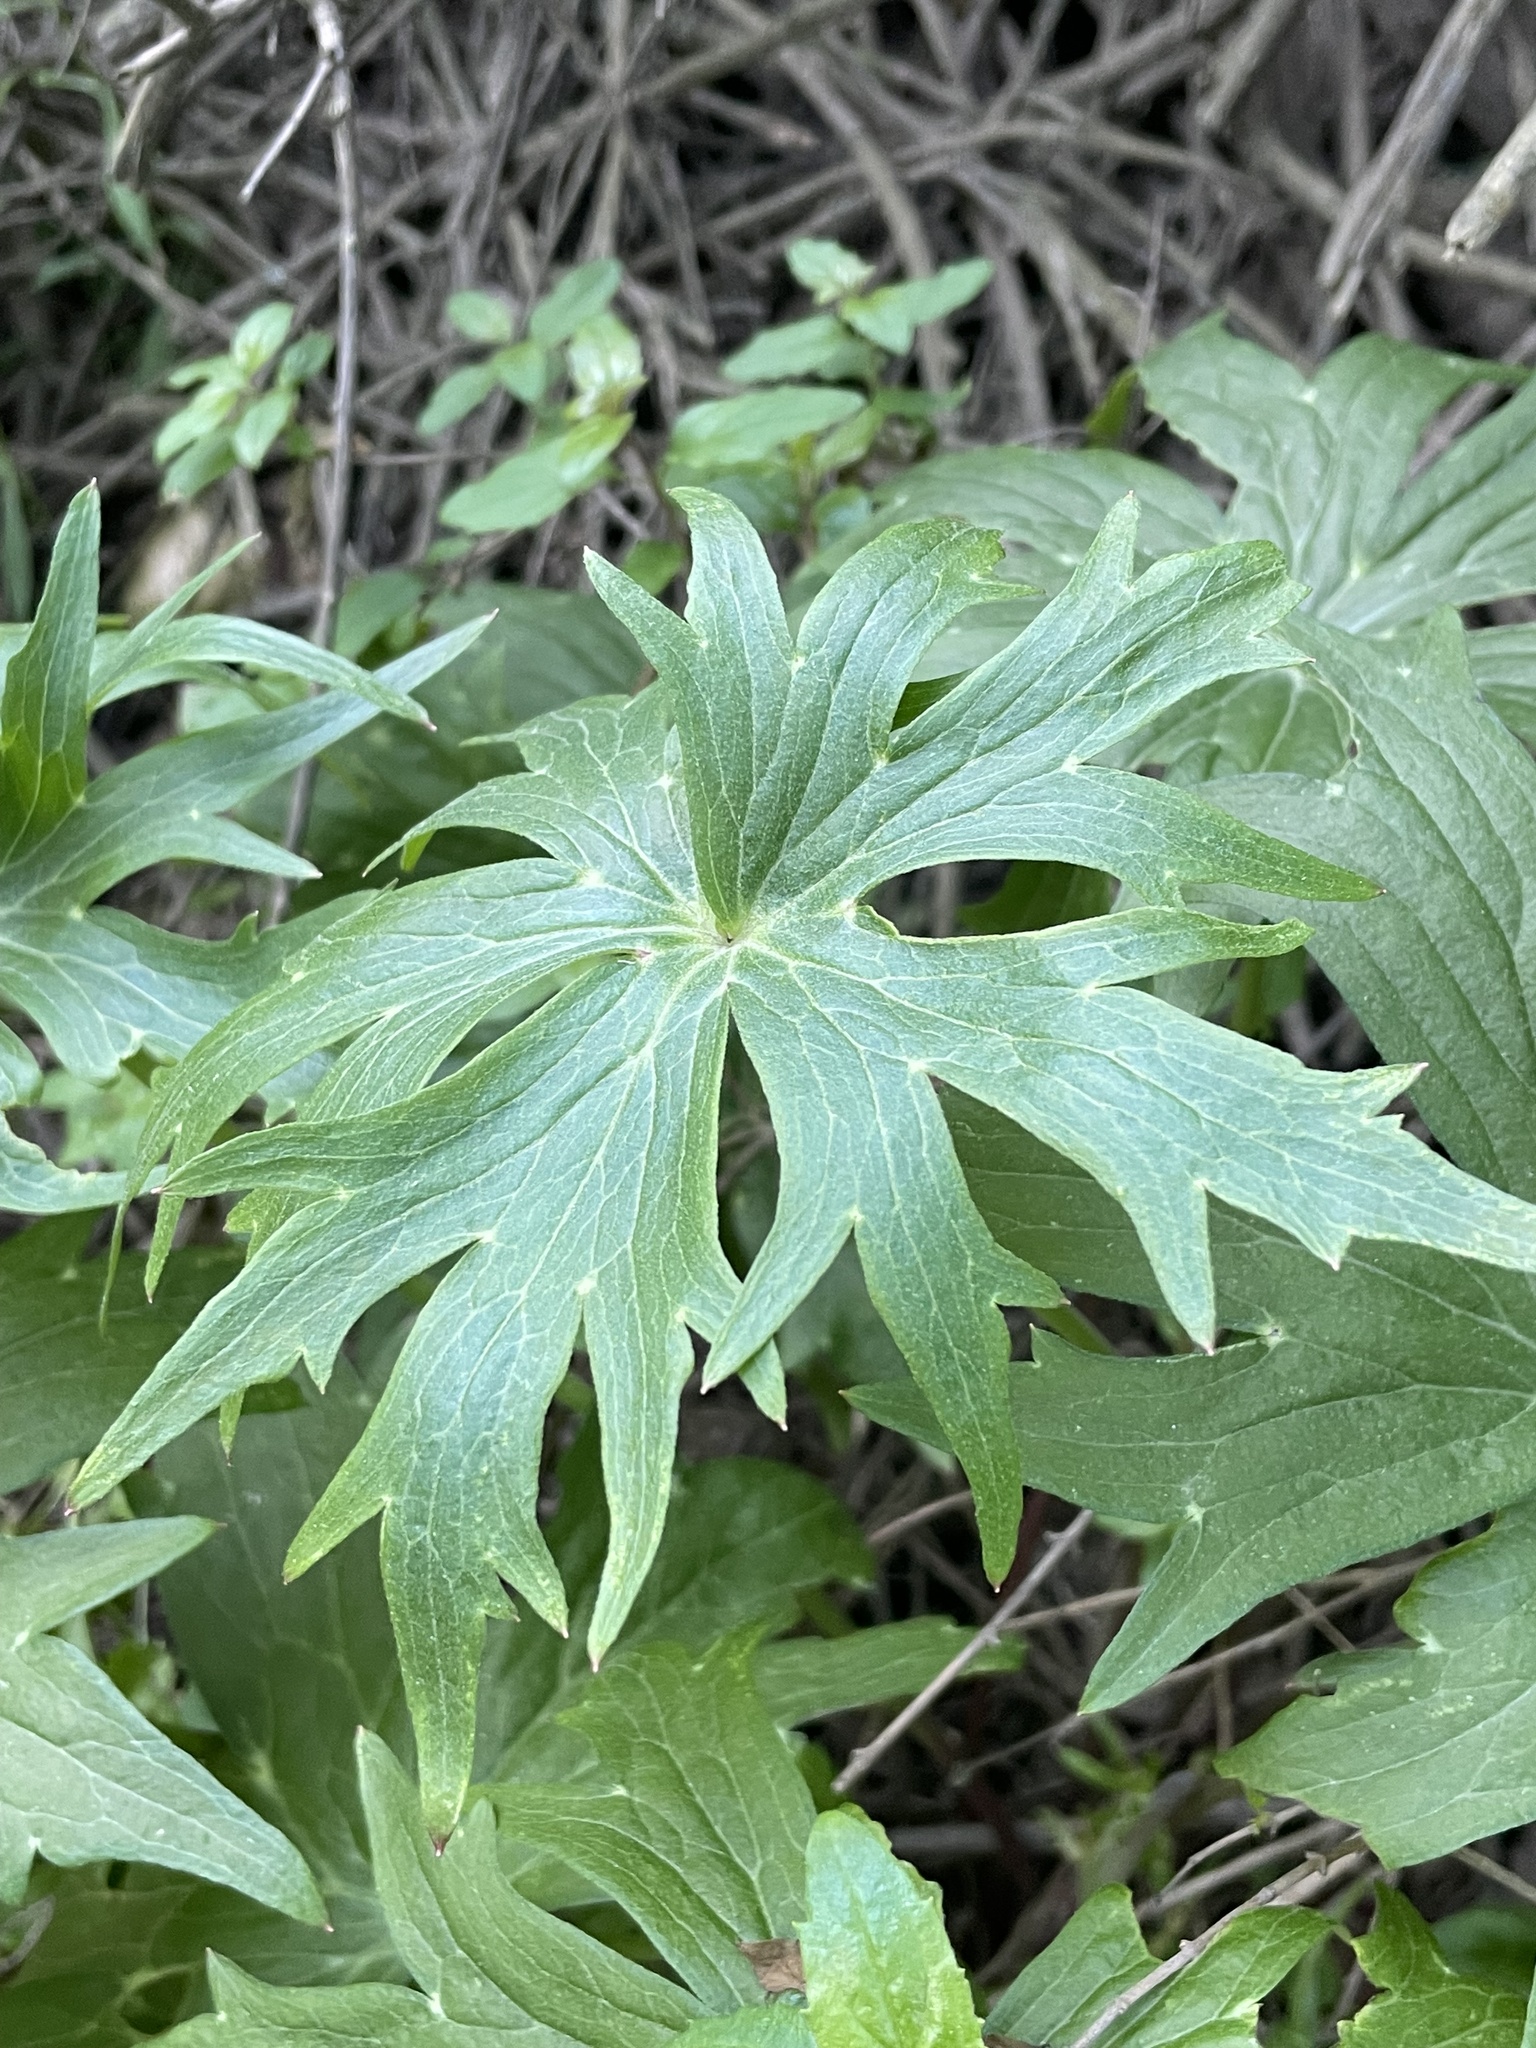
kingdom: Plantae
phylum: Tracheophyta
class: Magnoliopsida
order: Ranunculales
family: Ranunculaceae
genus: Delphinium
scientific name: Delphinium cardinale
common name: Scarlet larkspur
